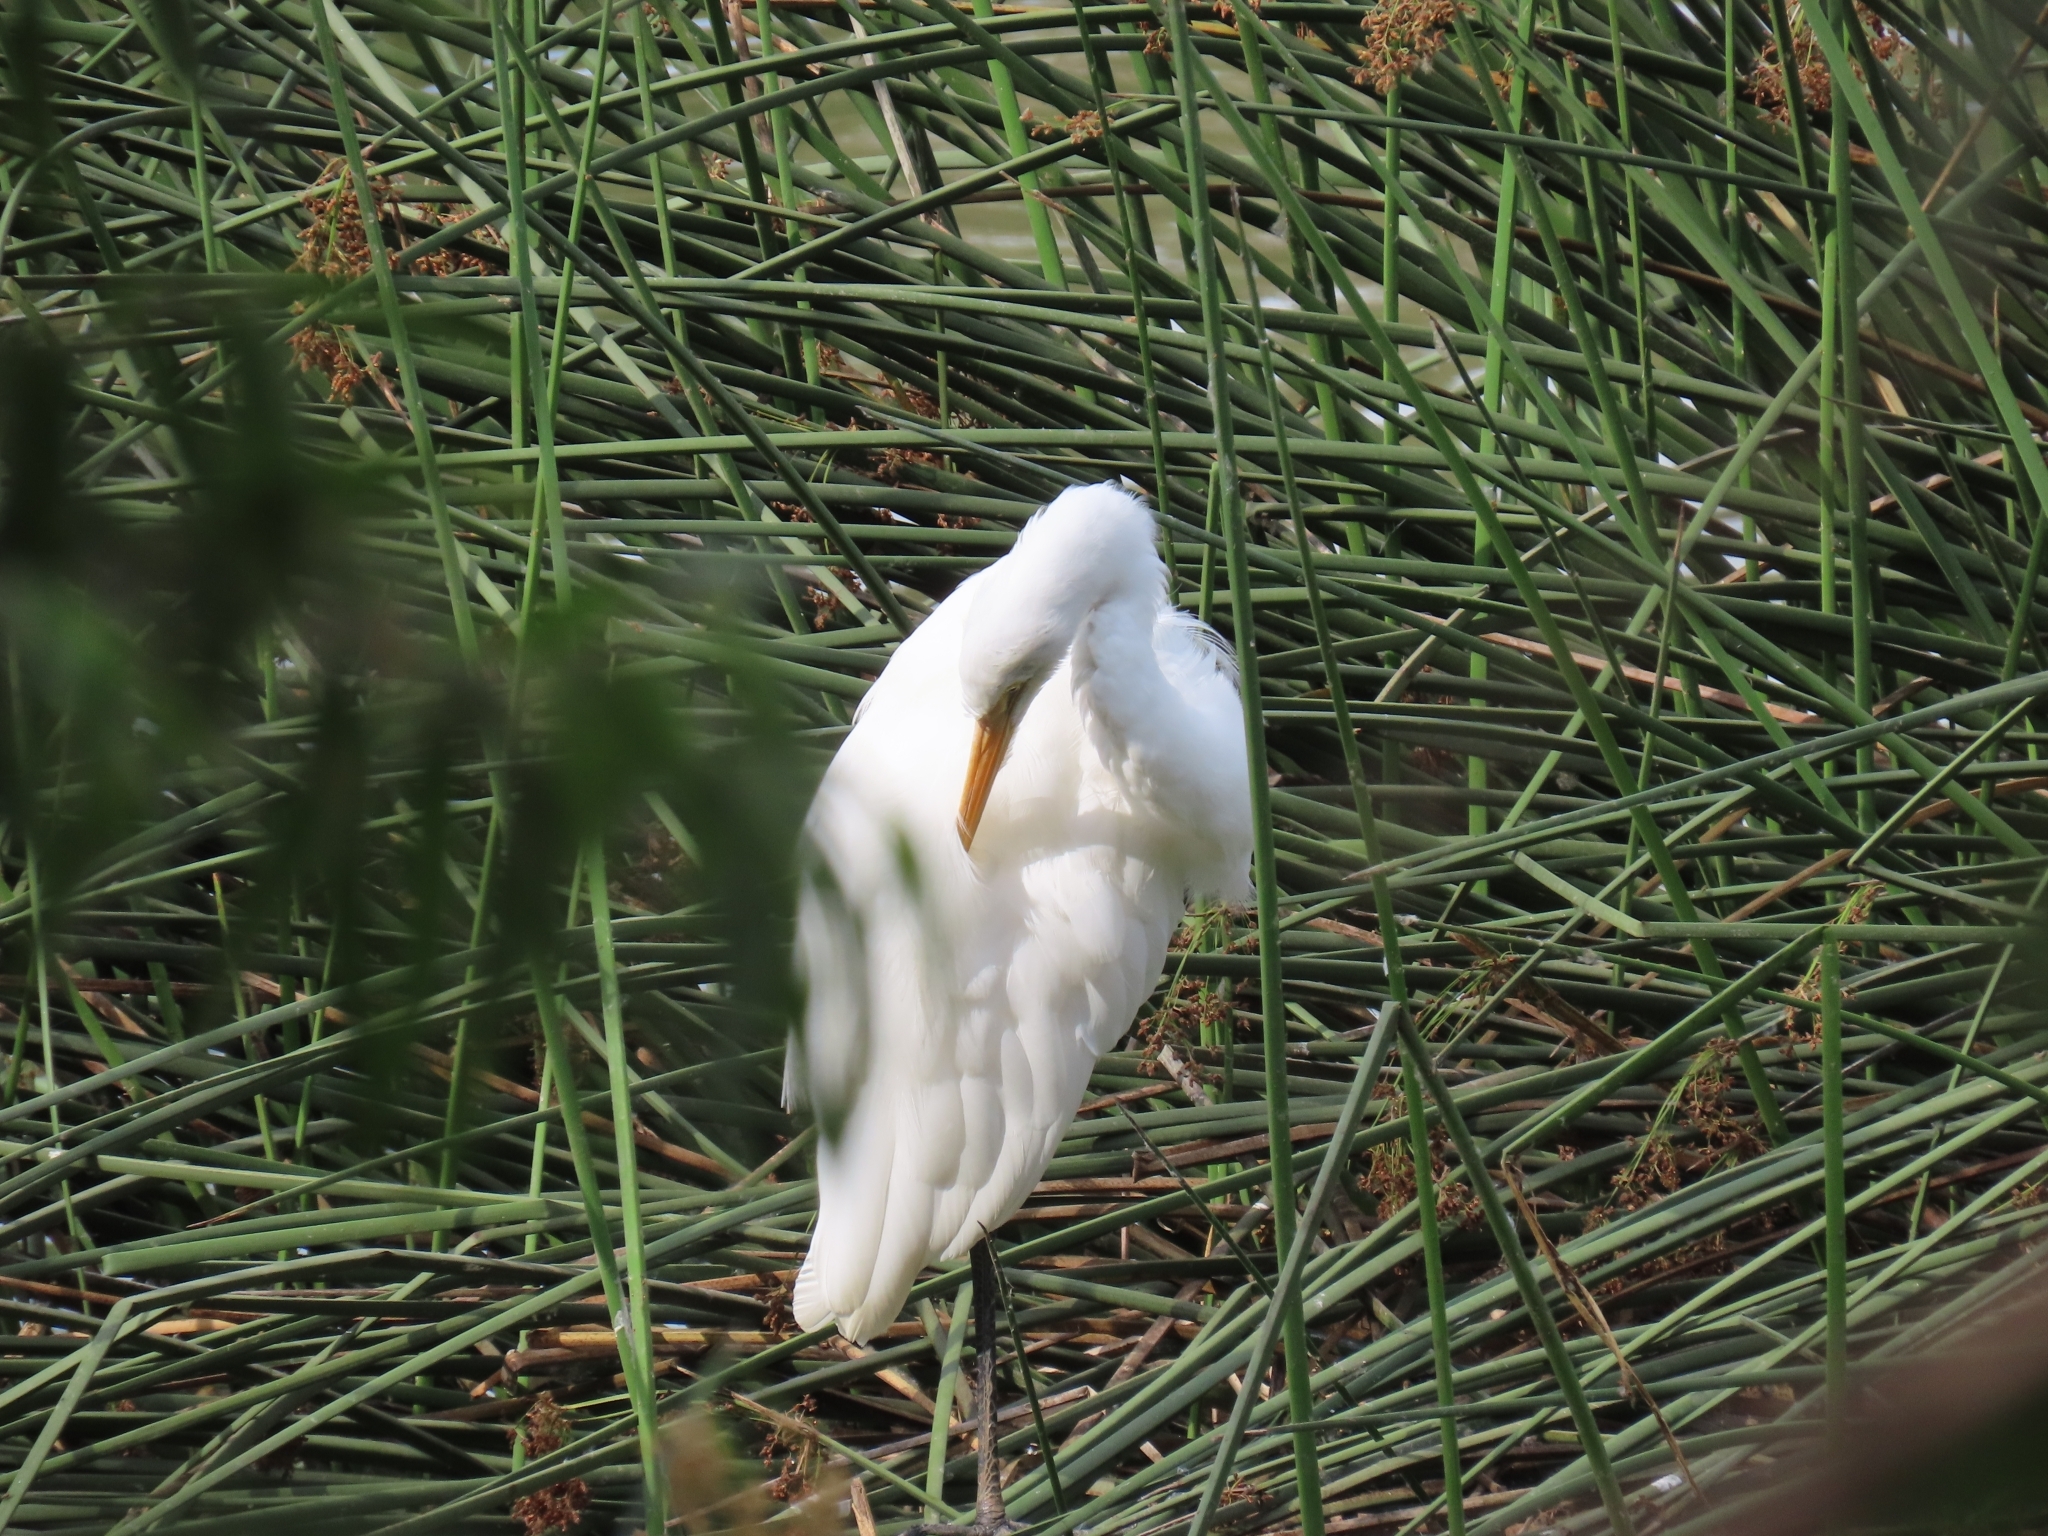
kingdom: Animalia
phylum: Chordata
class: Aves
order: Pelecaniformes
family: Ardeidae
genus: Ardea
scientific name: Ardea alba
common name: Great egret
